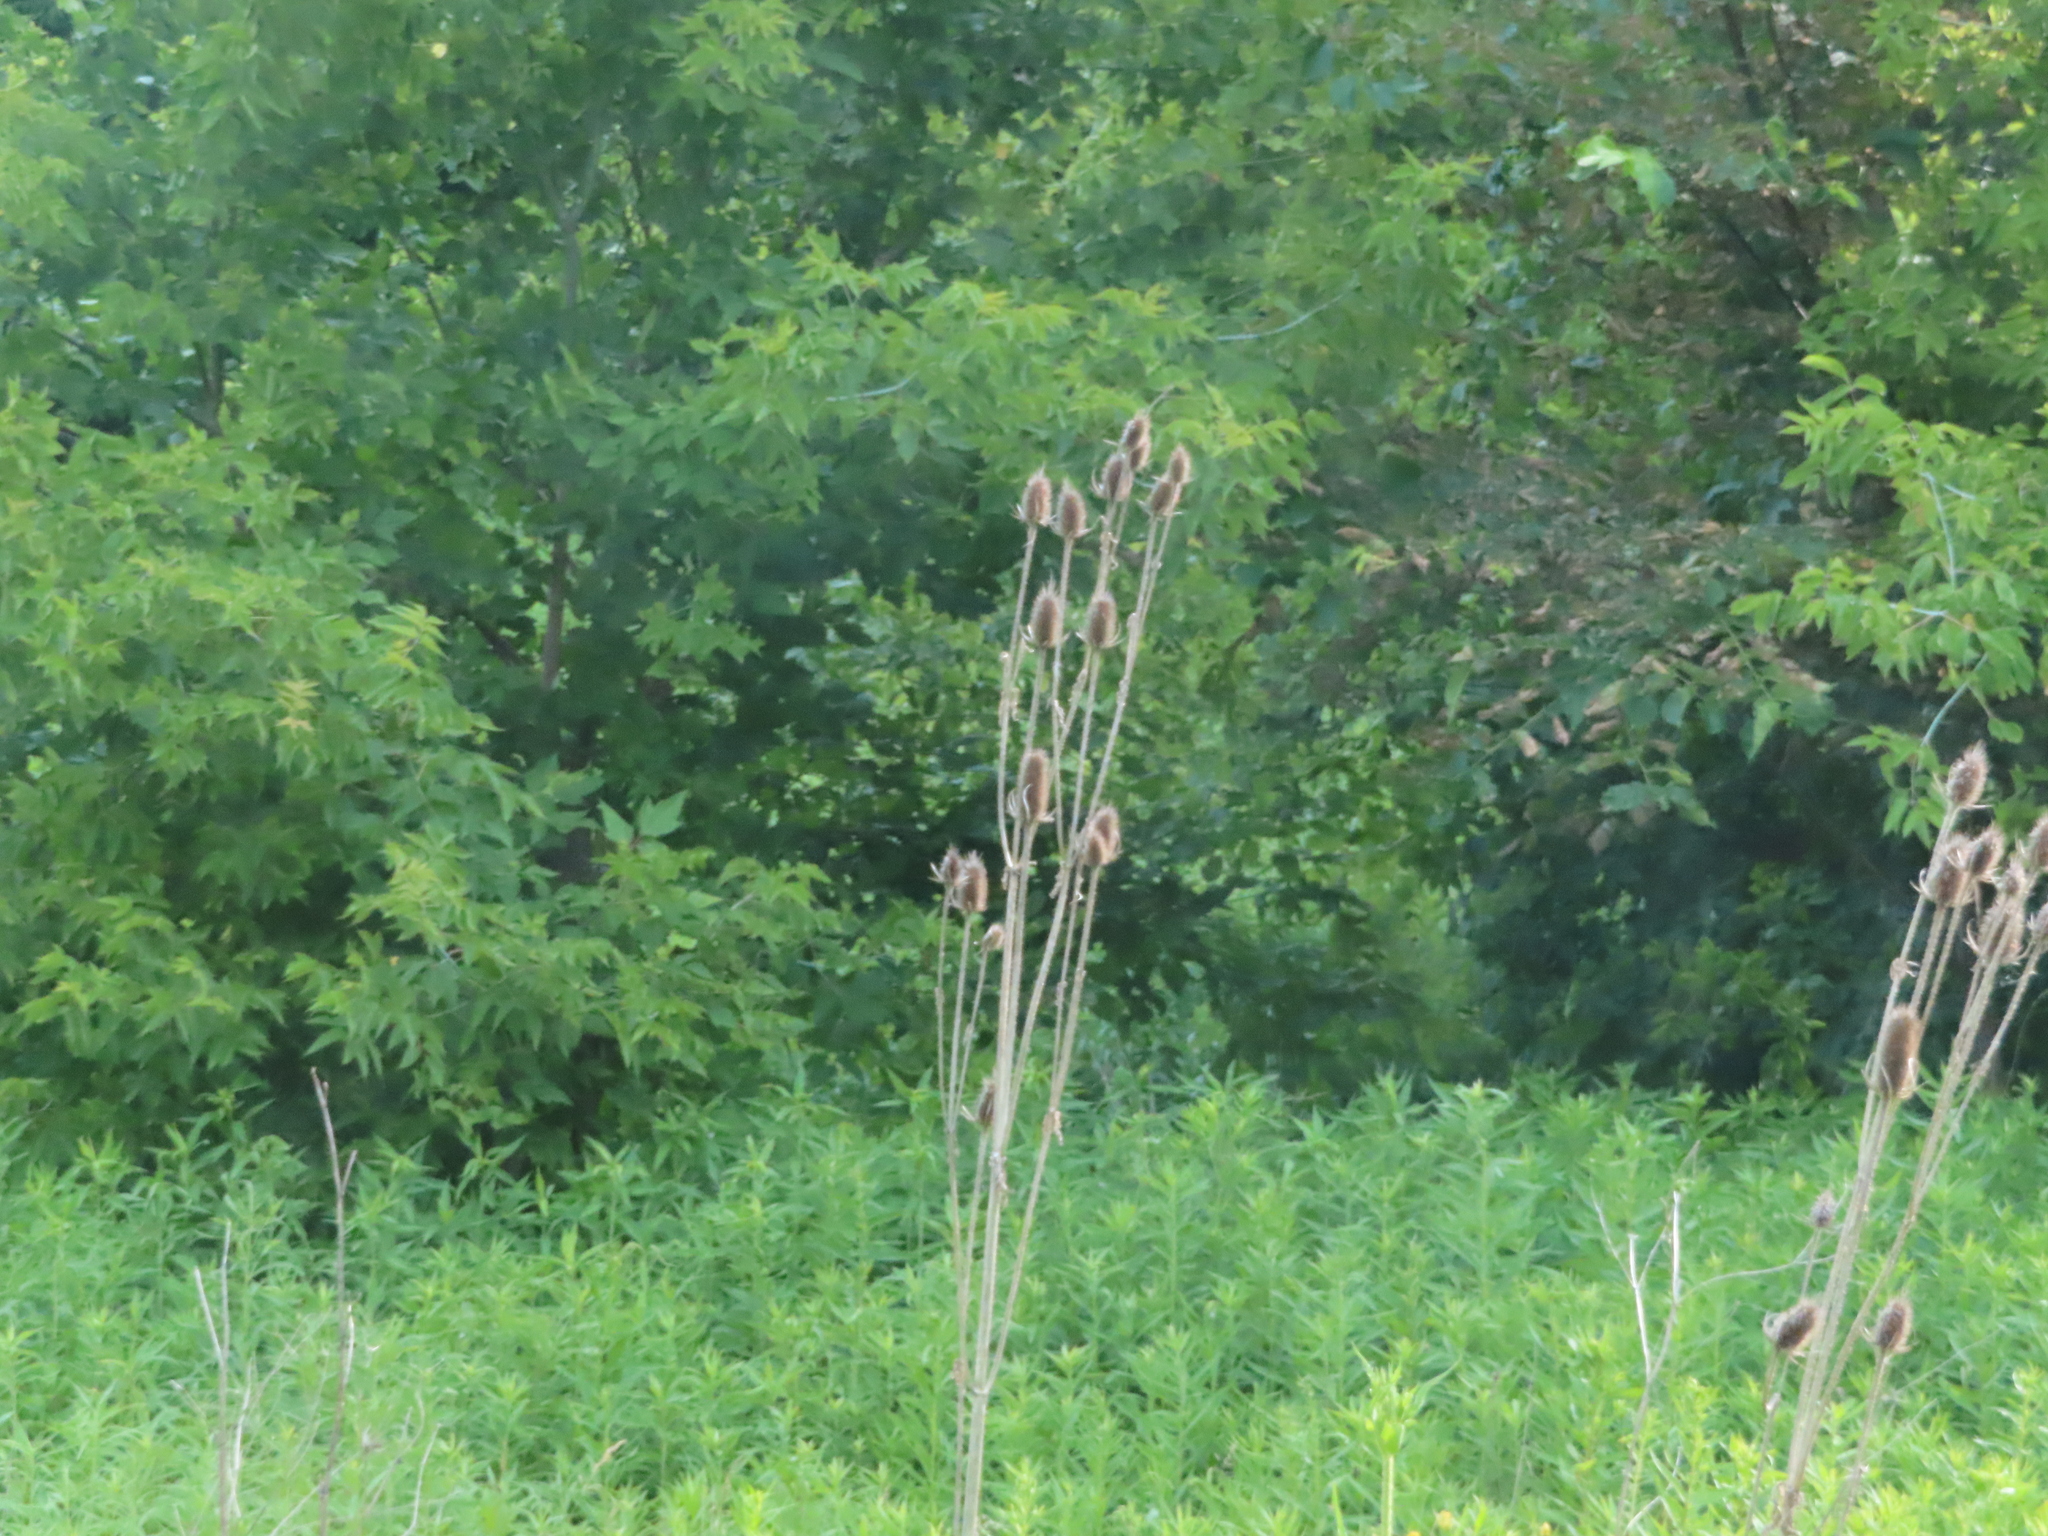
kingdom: Plantae
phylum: Tracheophyta
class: Magnoliopsida
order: Dipsacales
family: Caprifoliaceae
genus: Dipsacus
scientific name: Dipsacus laciniatus
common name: Cut-leaved teasel
